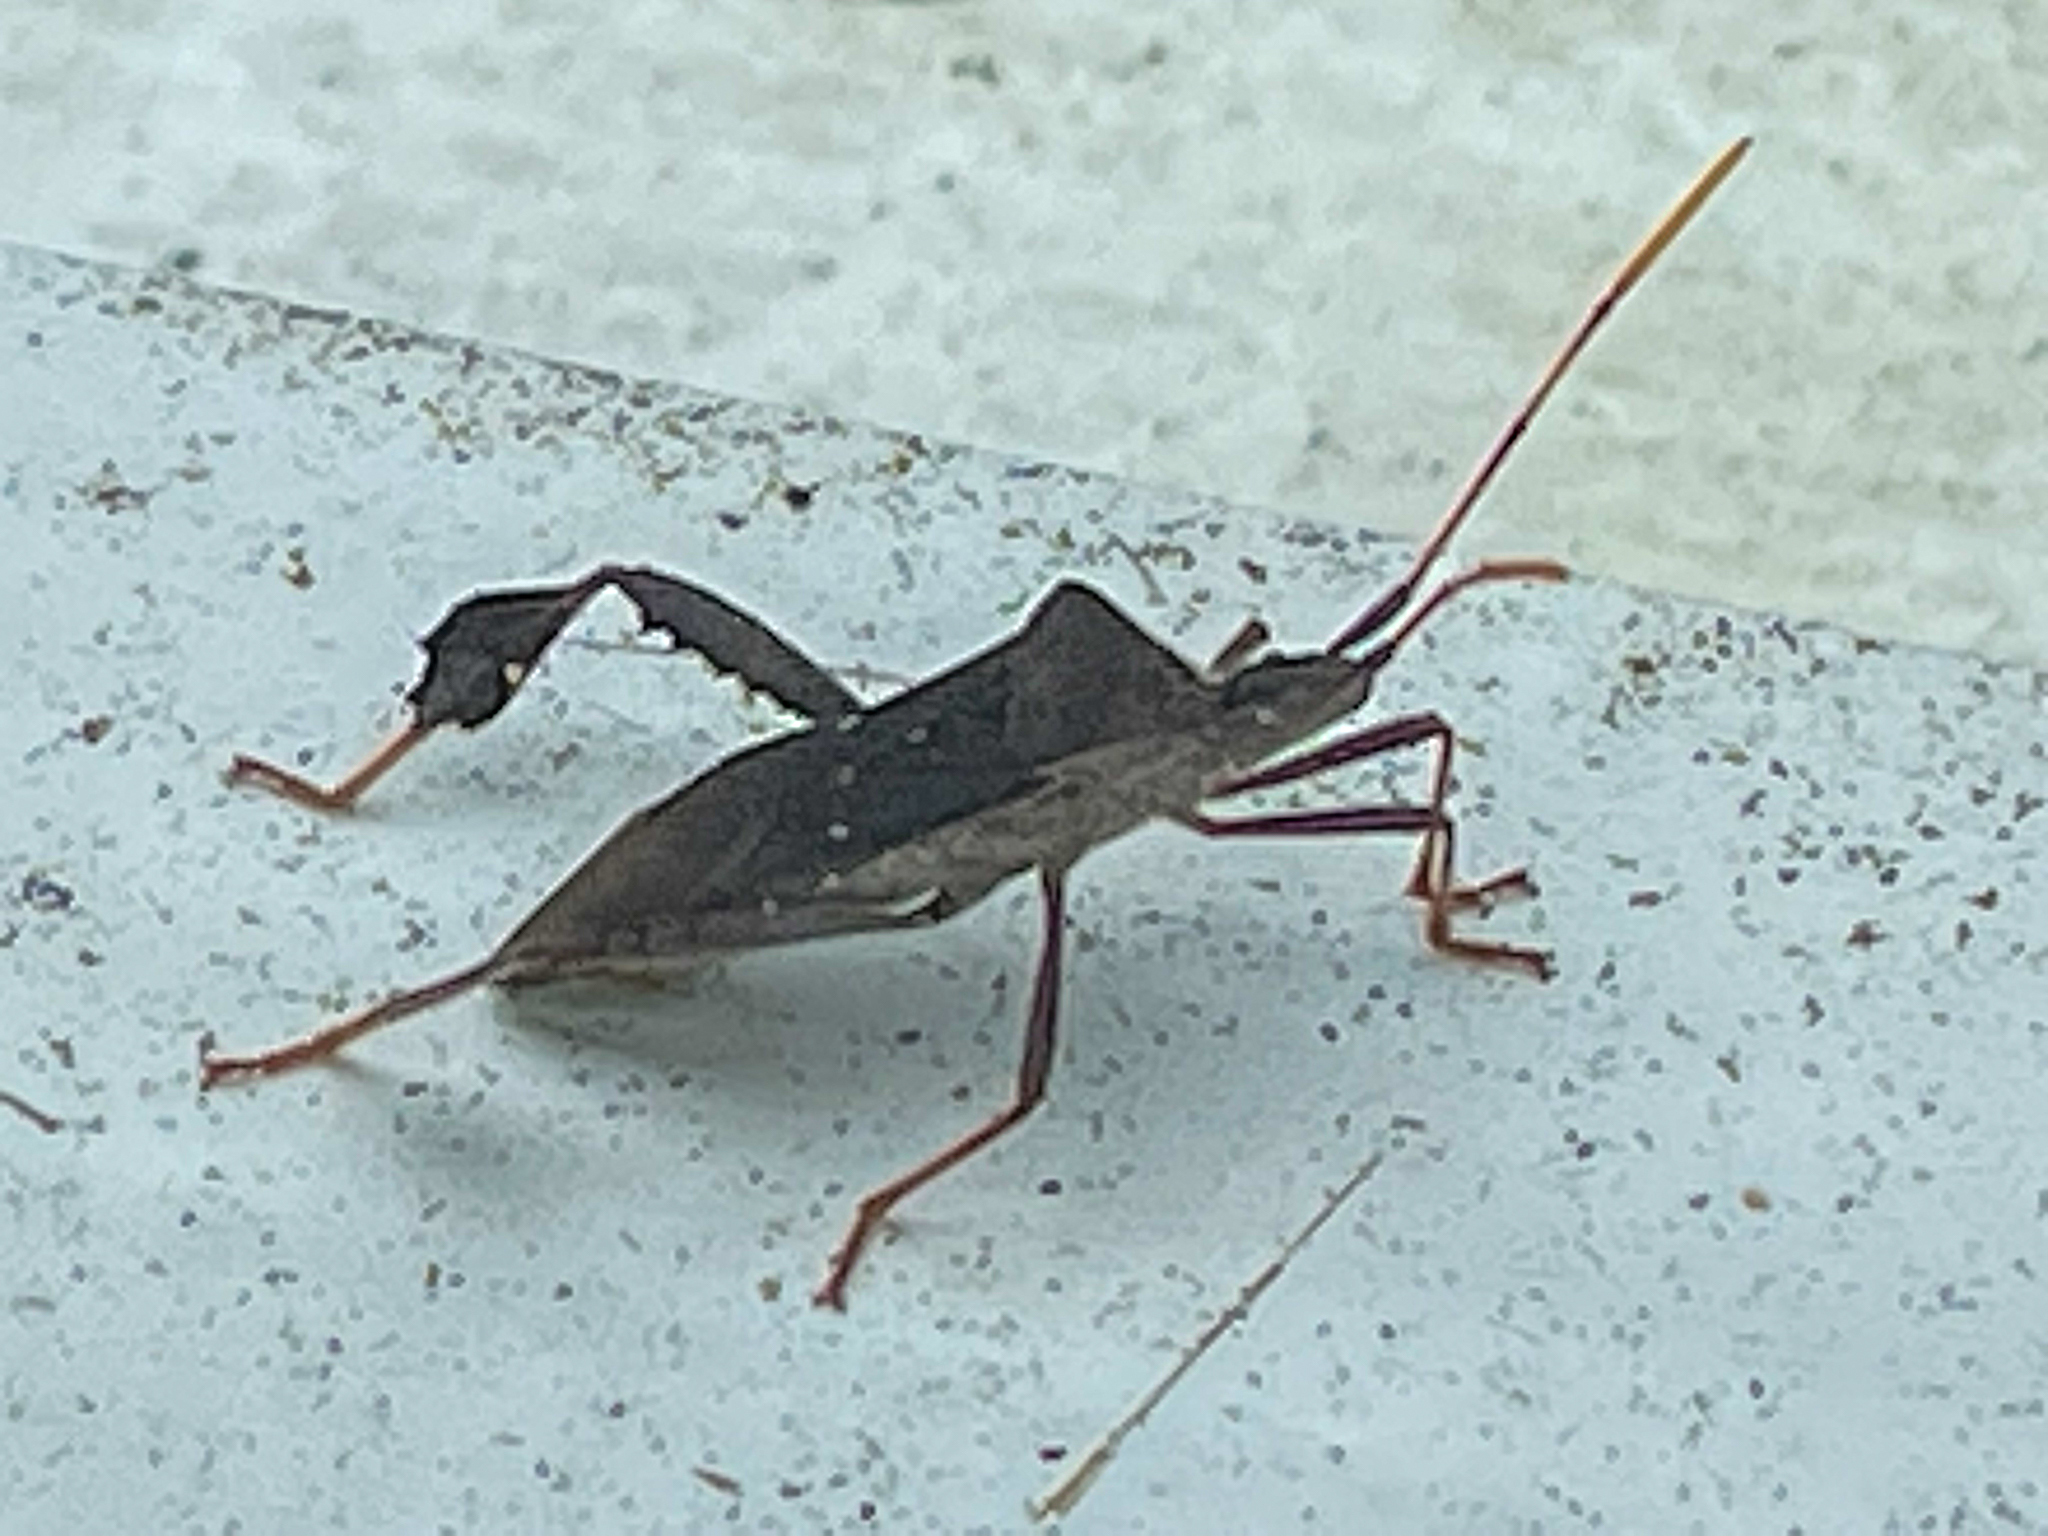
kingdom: Animalia
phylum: Arthropoda
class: Insecta
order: Hemiptera
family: Coreidae
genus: Leptoglossus
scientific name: Leptoglossus oppositus
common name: Northern leaf-footed bug
